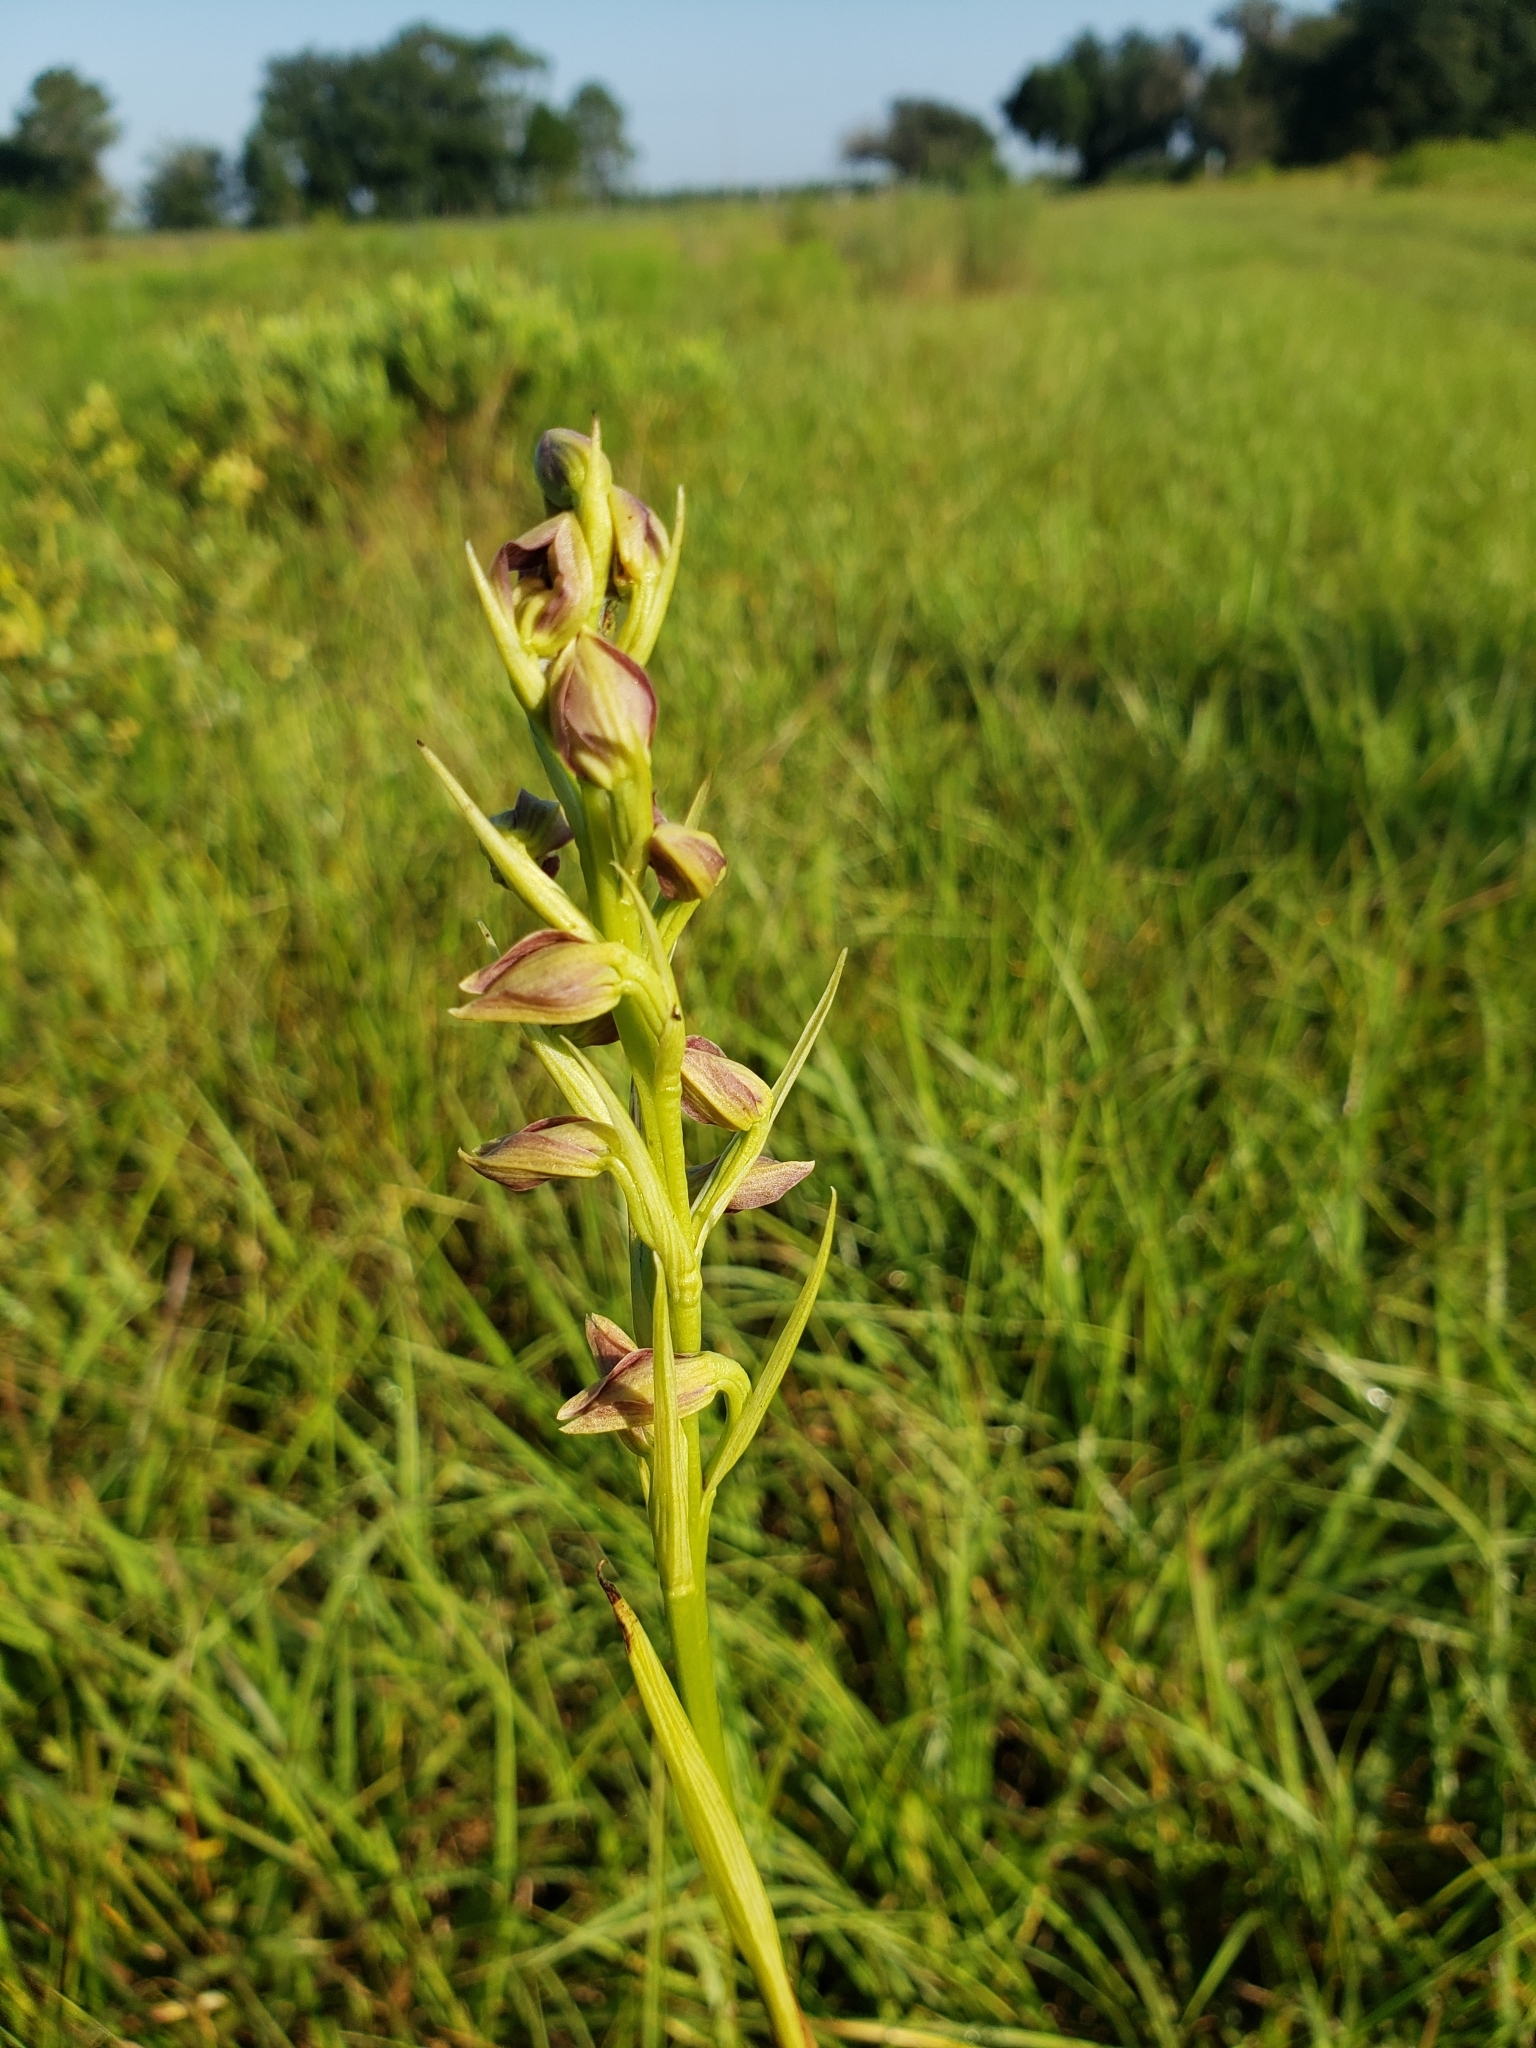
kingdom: Plantae
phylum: Tracheophyta
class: Liliopsida
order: Asparagales
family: Orchidaceae
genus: Eulophia
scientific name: Eulophia ecristata
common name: Giant orchid
